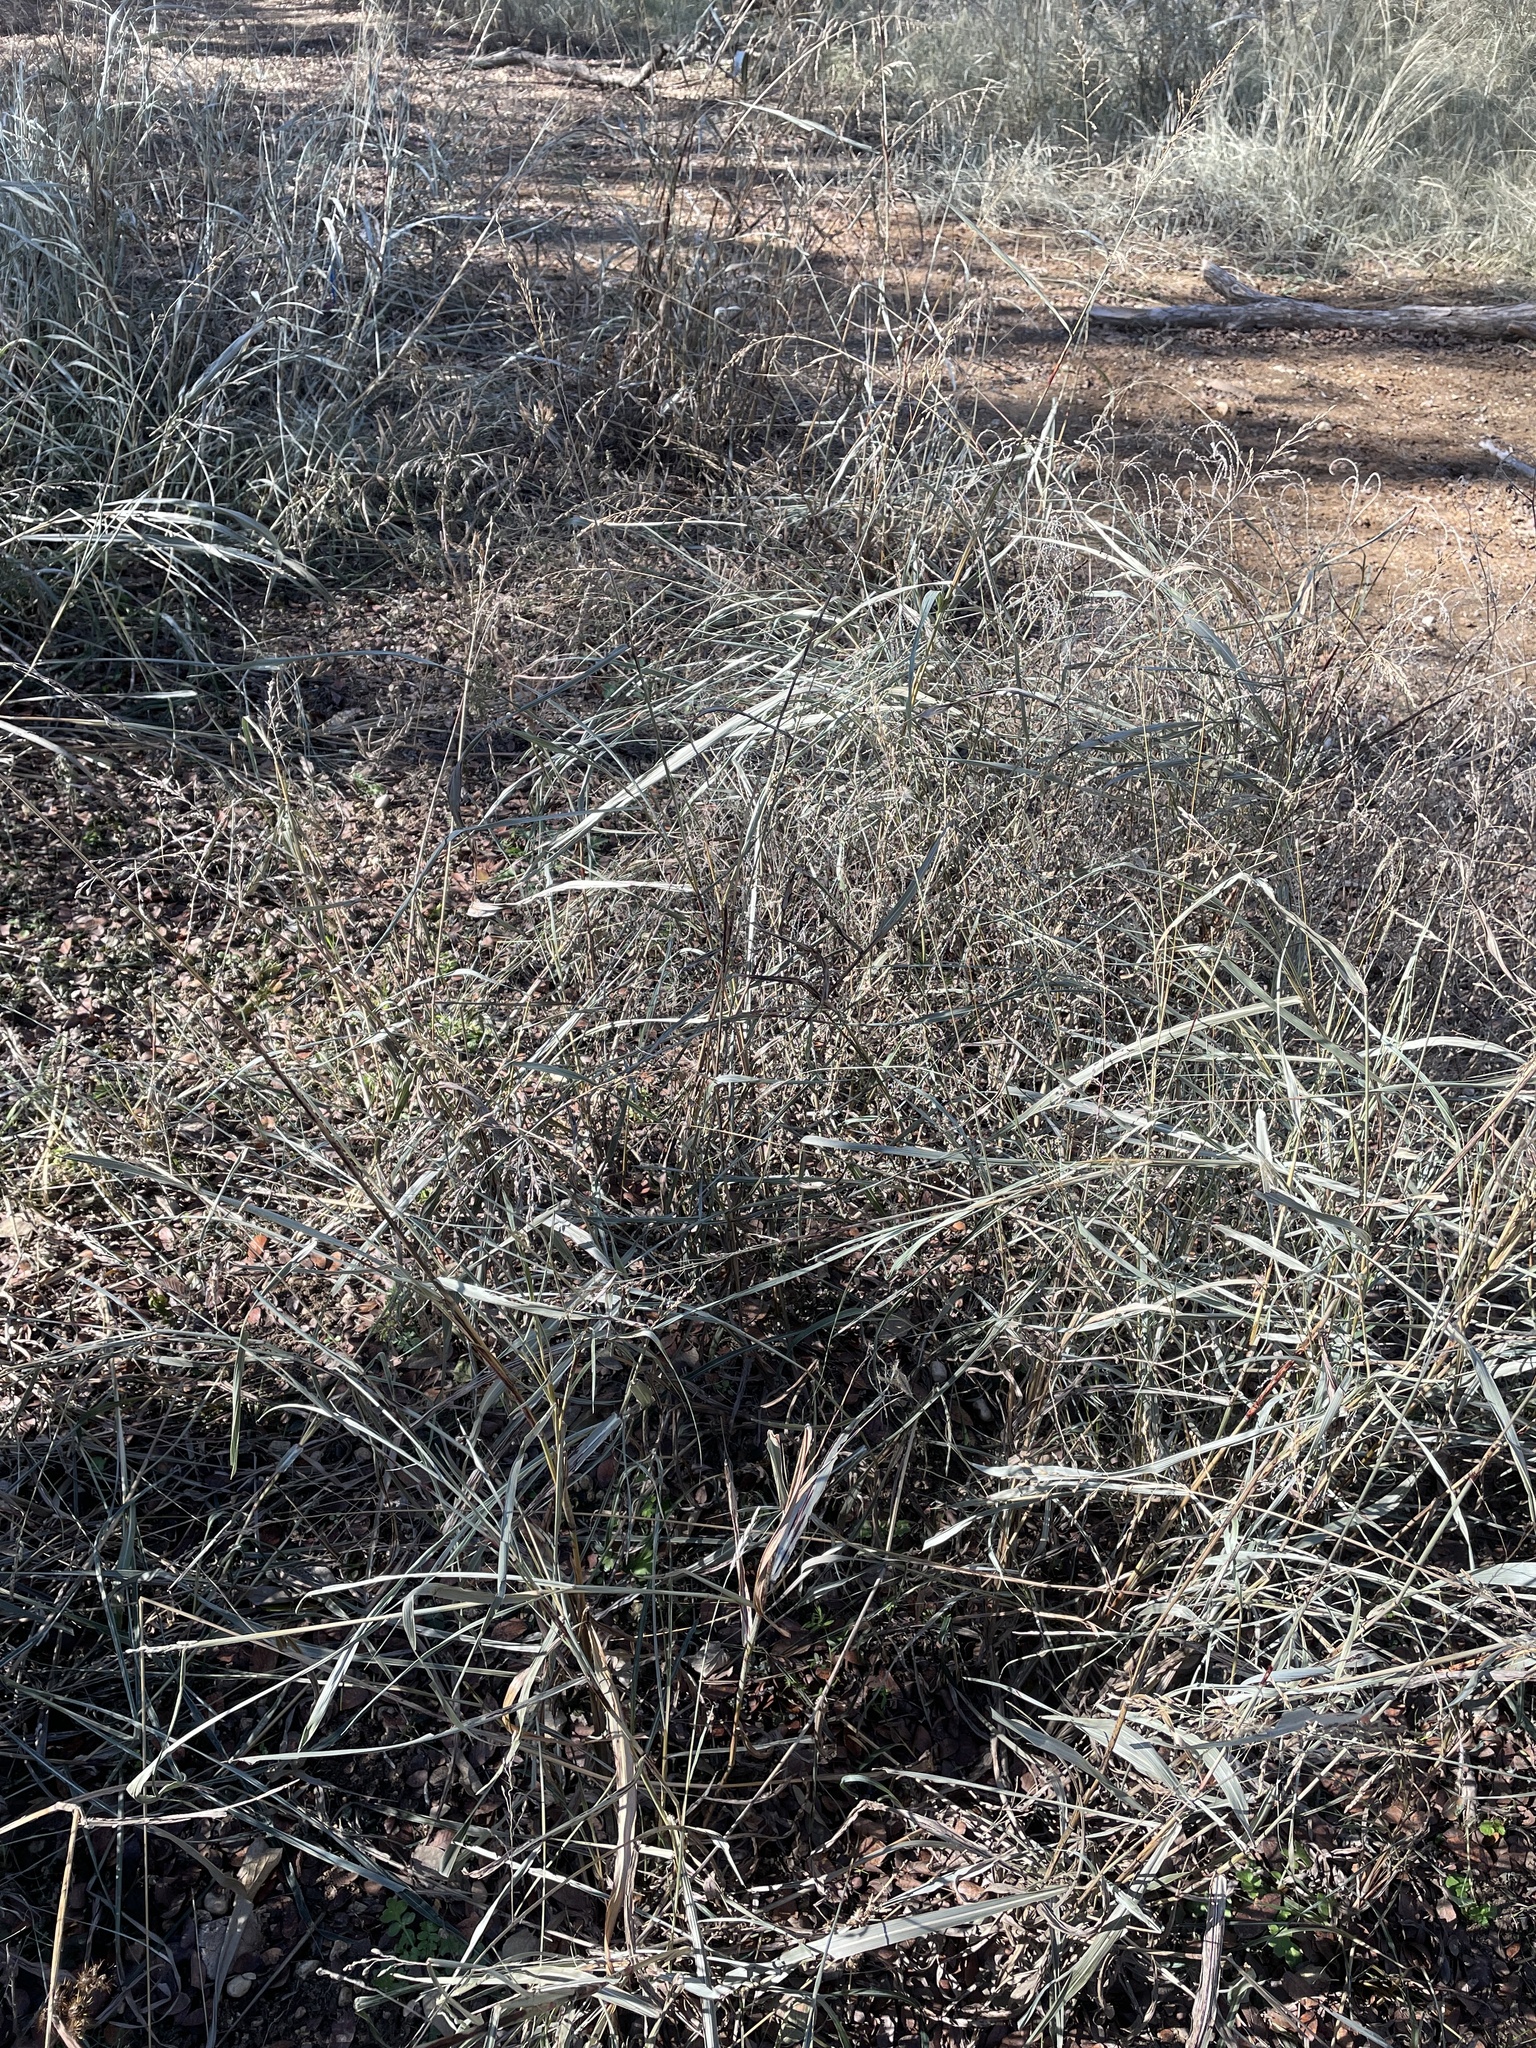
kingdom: Plantae
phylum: Tracheophyta
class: Liliopsida
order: Poales
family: Poaceae
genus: Sorghum
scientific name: Sorghum halepense
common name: Johnson-grass
